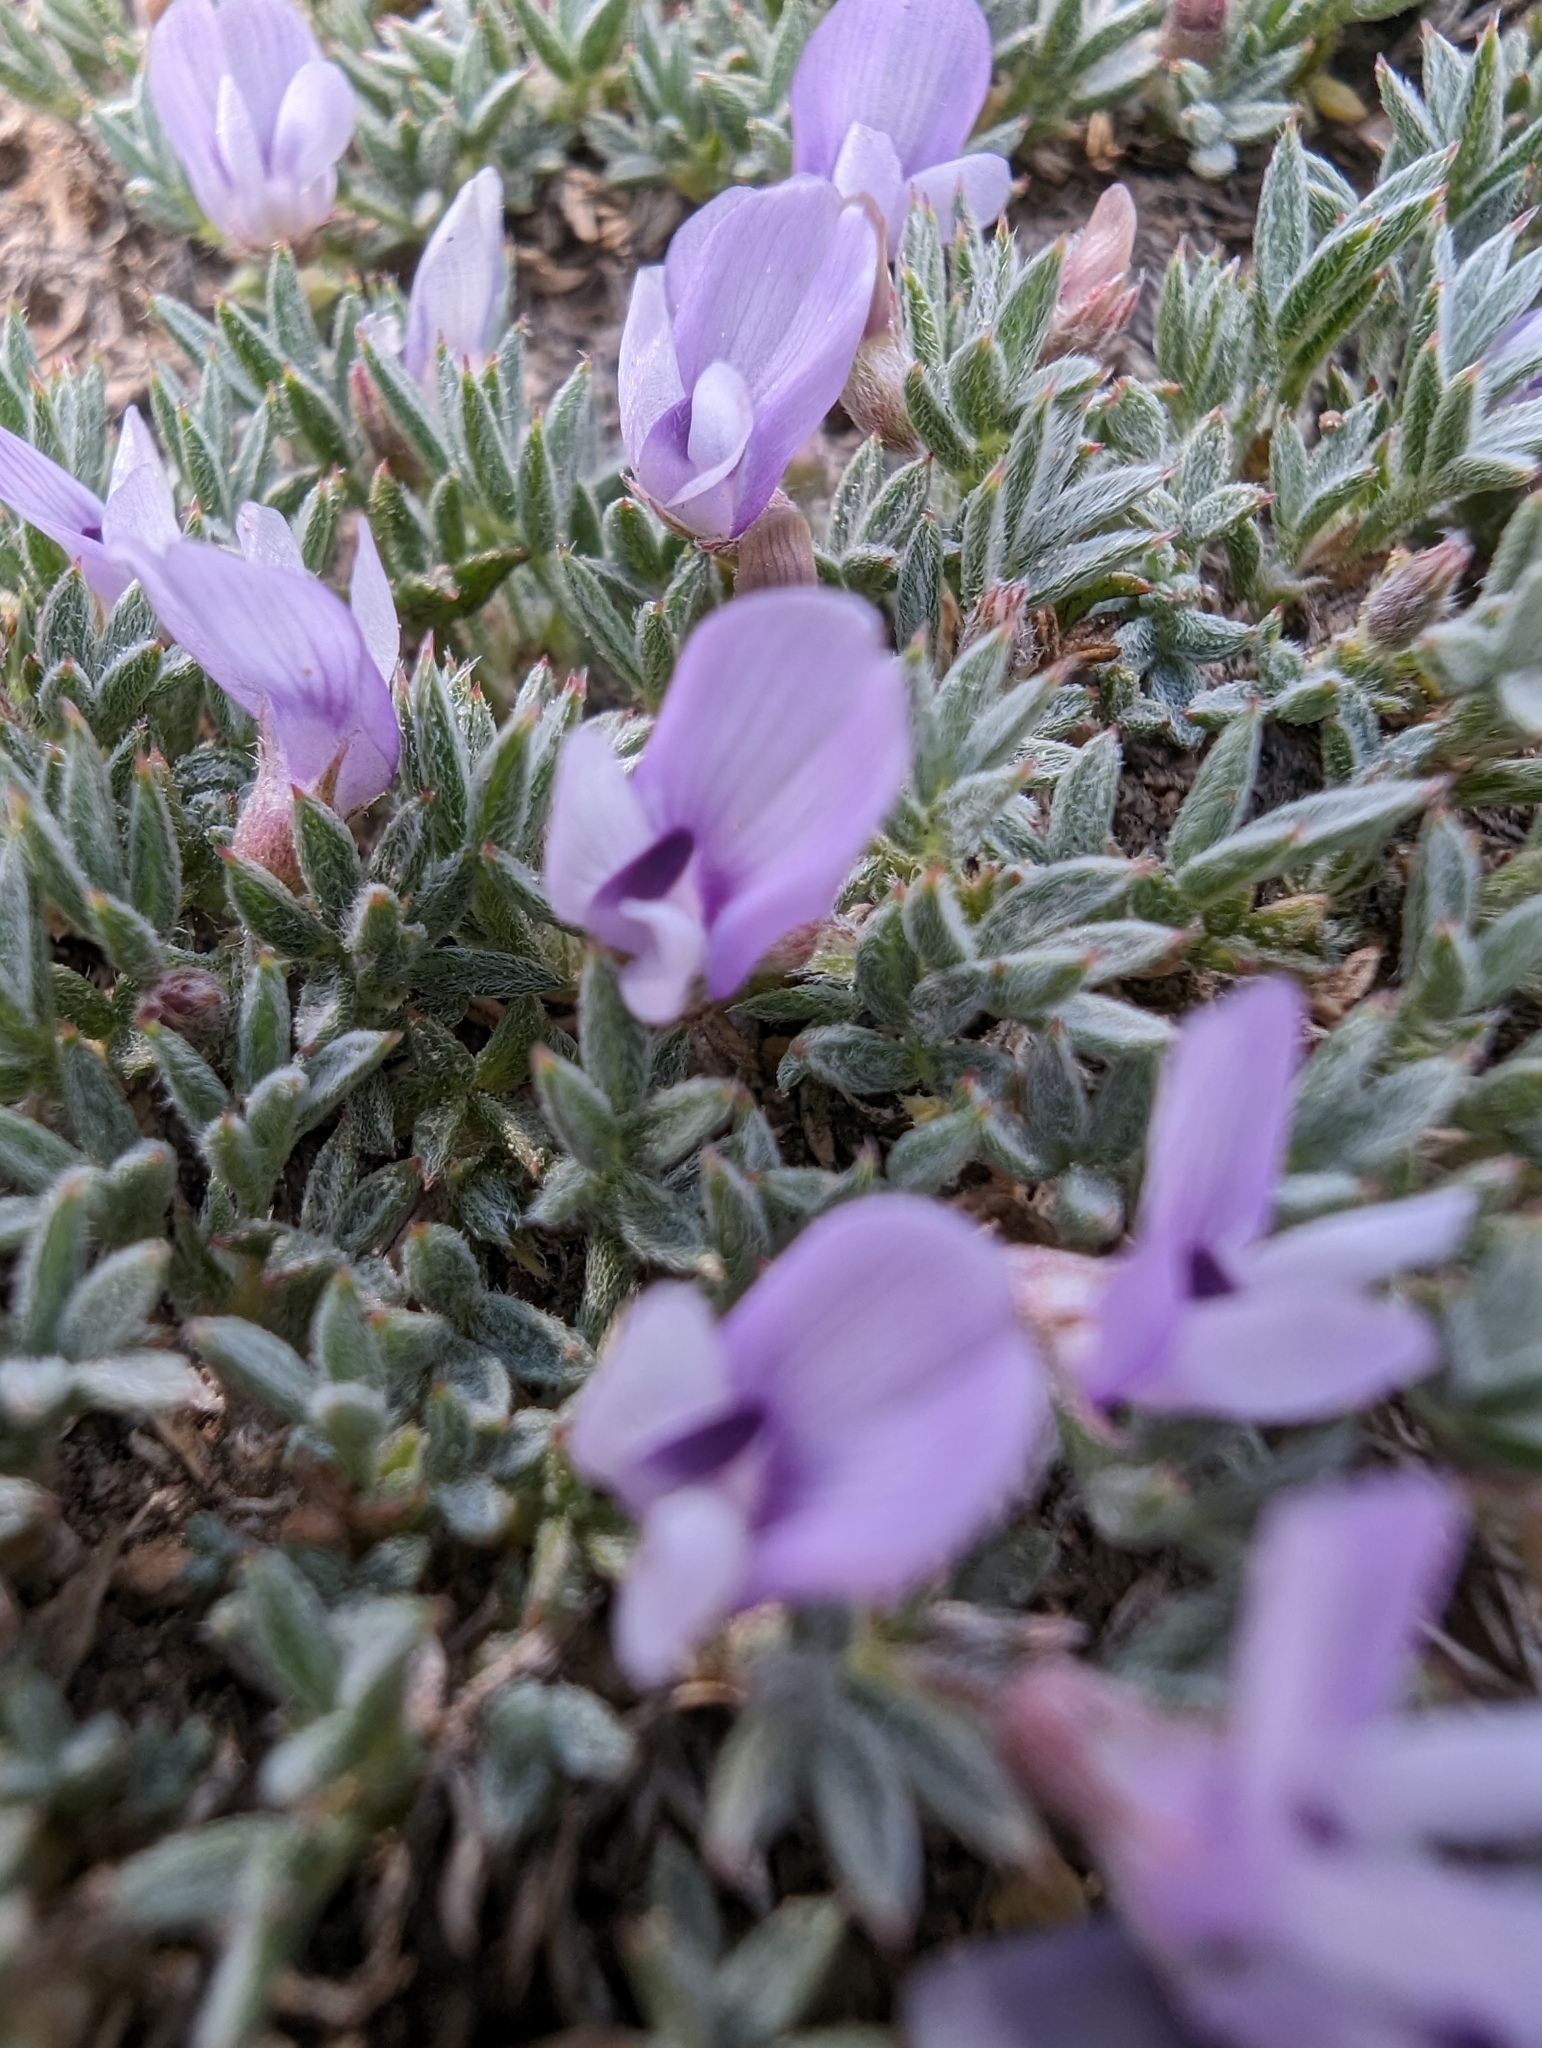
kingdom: Plantae
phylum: Tracheophyta
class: Magnoliopsida
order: Fabales
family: Fabaceae
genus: Astragalus
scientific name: Astragalus kentrophyta
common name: Prickly milk-vetch
